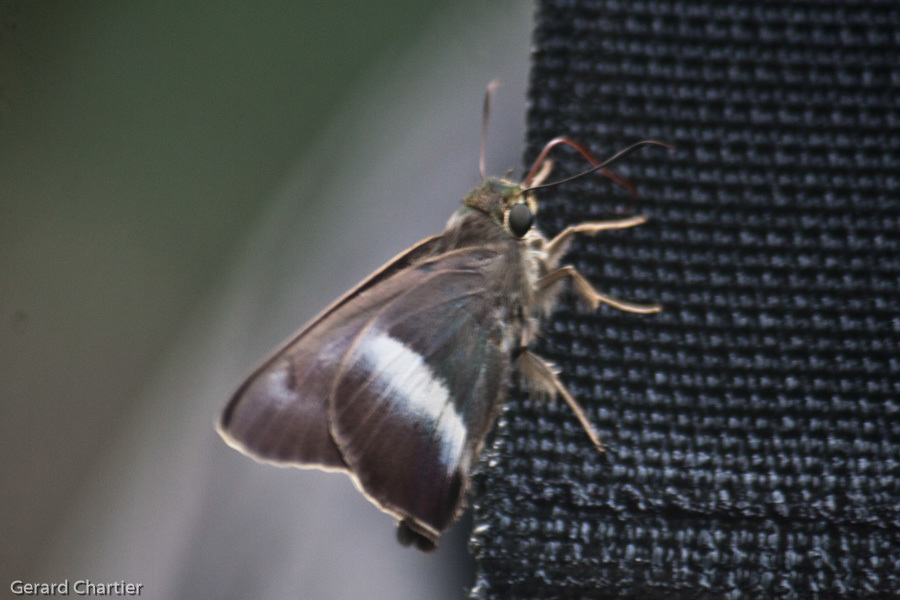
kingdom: Animalia
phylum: Arthropoda
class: Insecta
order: Lepidoptera
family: Hesperiidae
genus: Hasora
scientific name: Hasora proxissima
